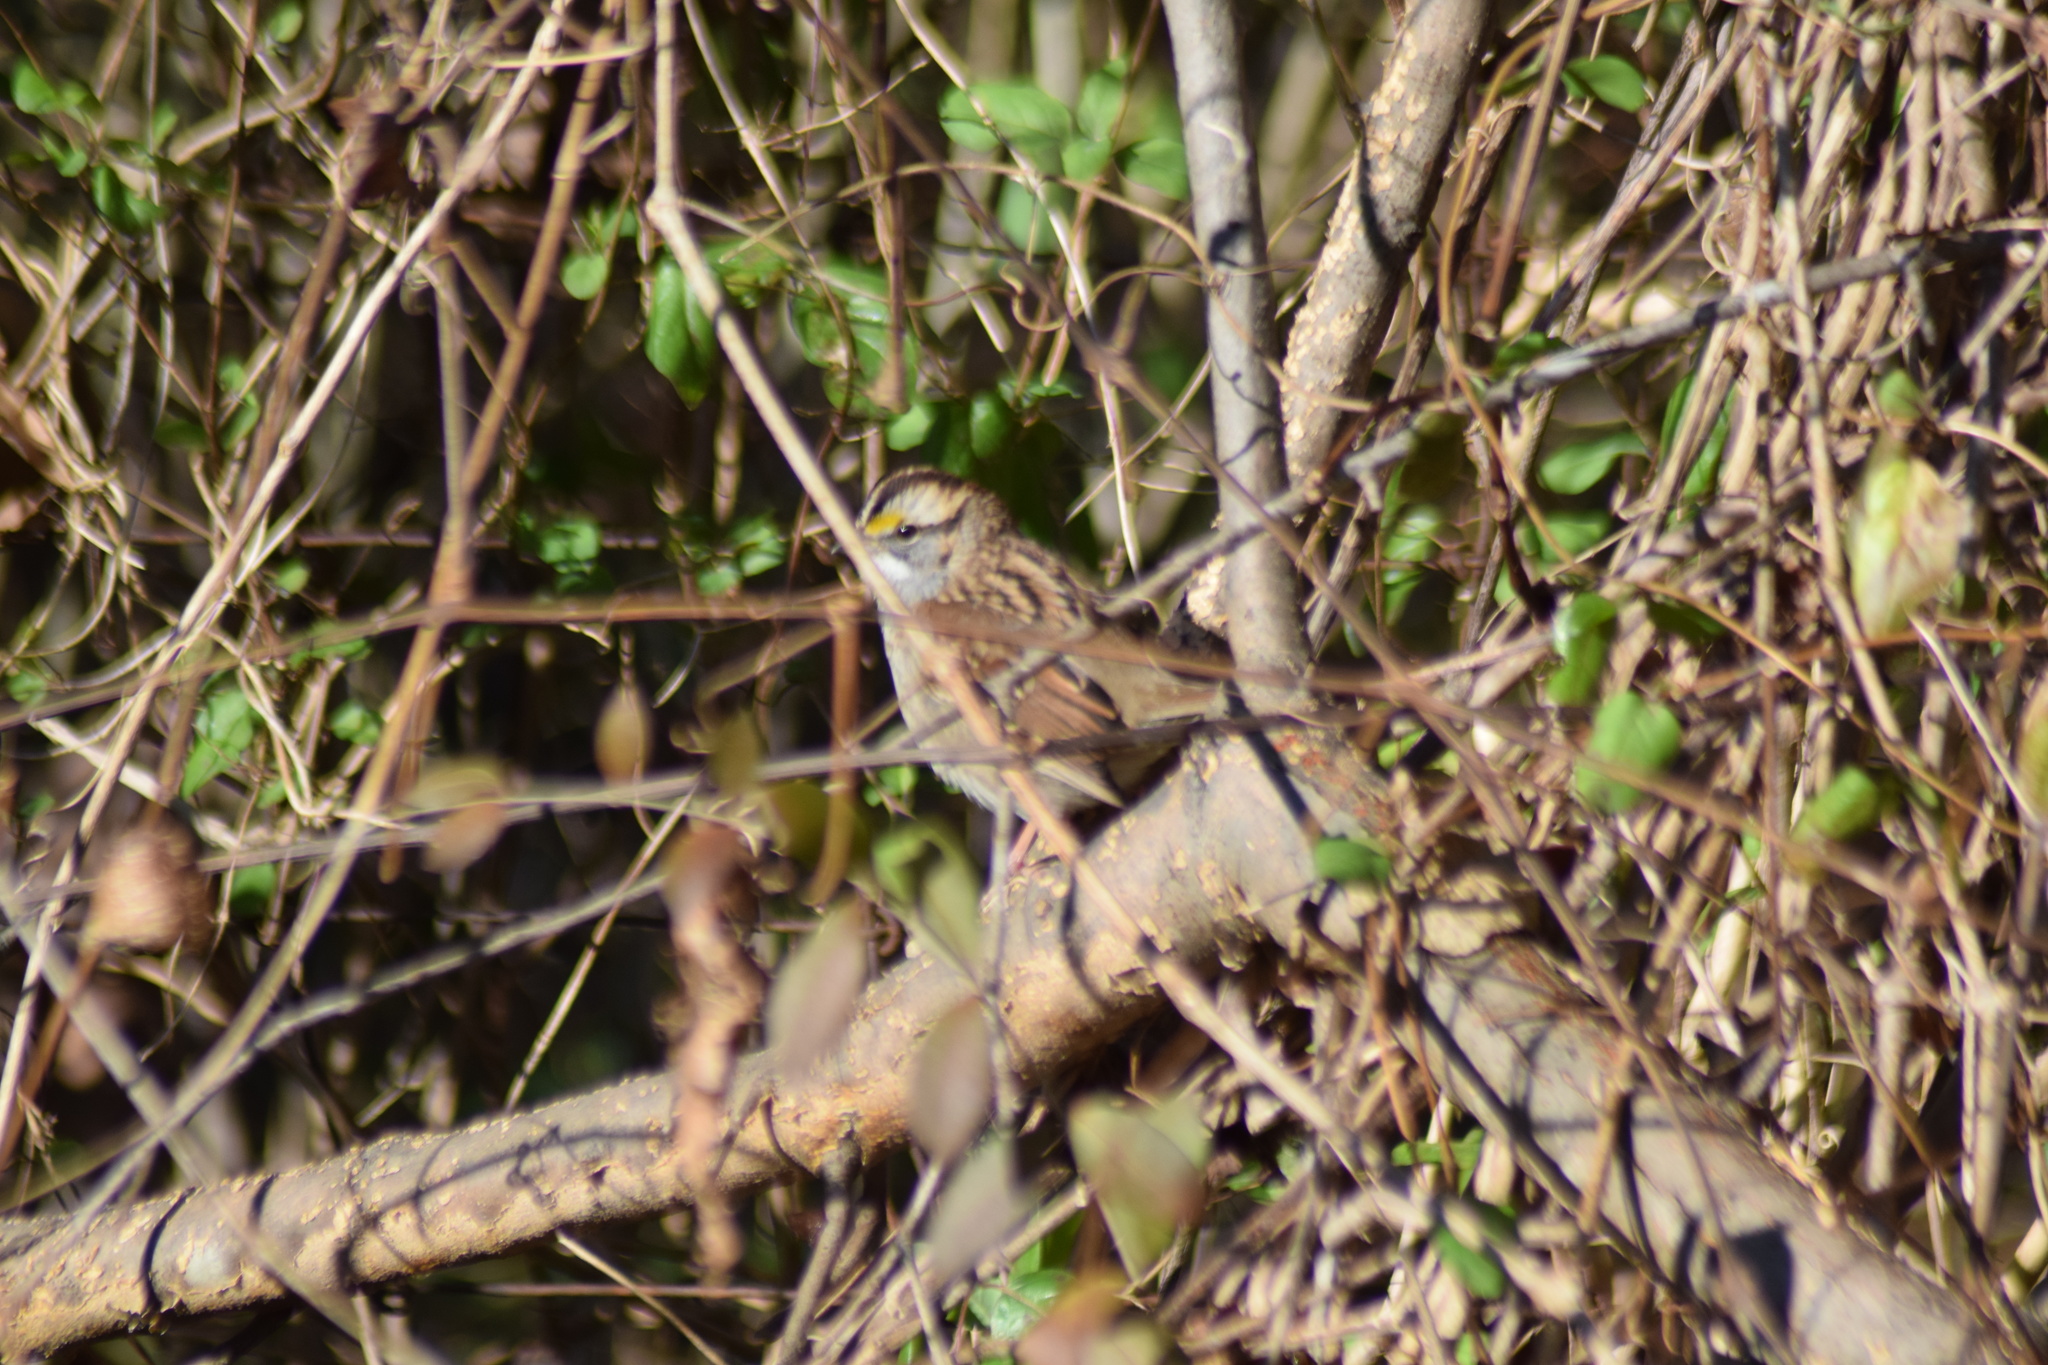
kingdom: Animalia
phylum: Chordata
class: Aves
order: Passeriformes
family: Passerellidae
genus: Zonotrichia
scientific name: Zonotrichia albicollis
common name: White-throated sparrow
